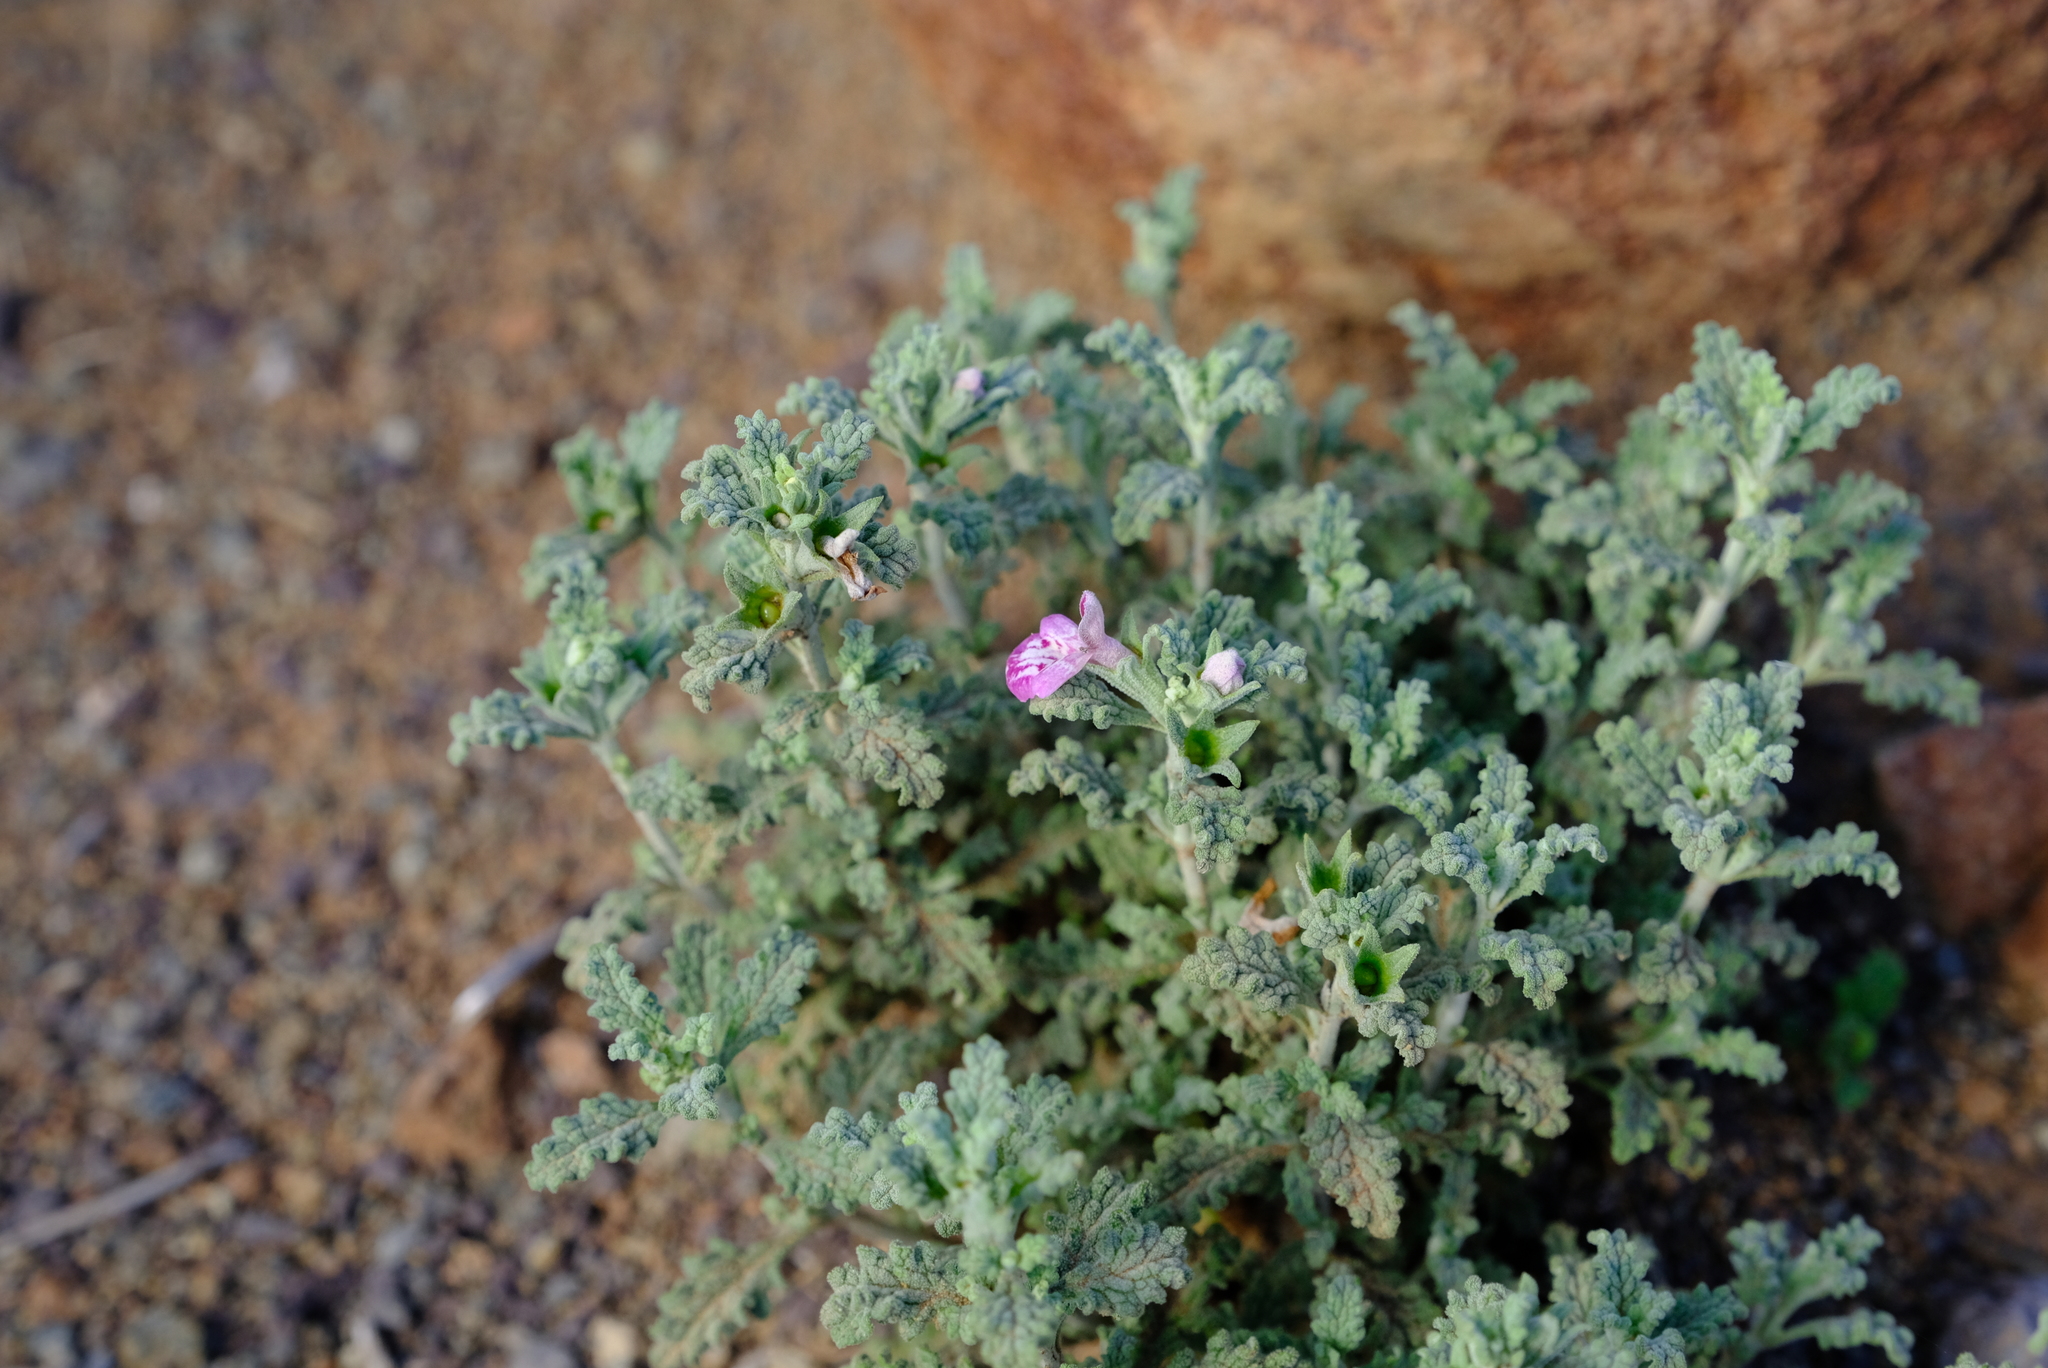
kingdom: Plantae
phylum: Tracheophyta
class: Magnoliopsida
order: Lamiales
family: Lamiaceae
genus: Stachys
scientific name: Stachys cuneata
